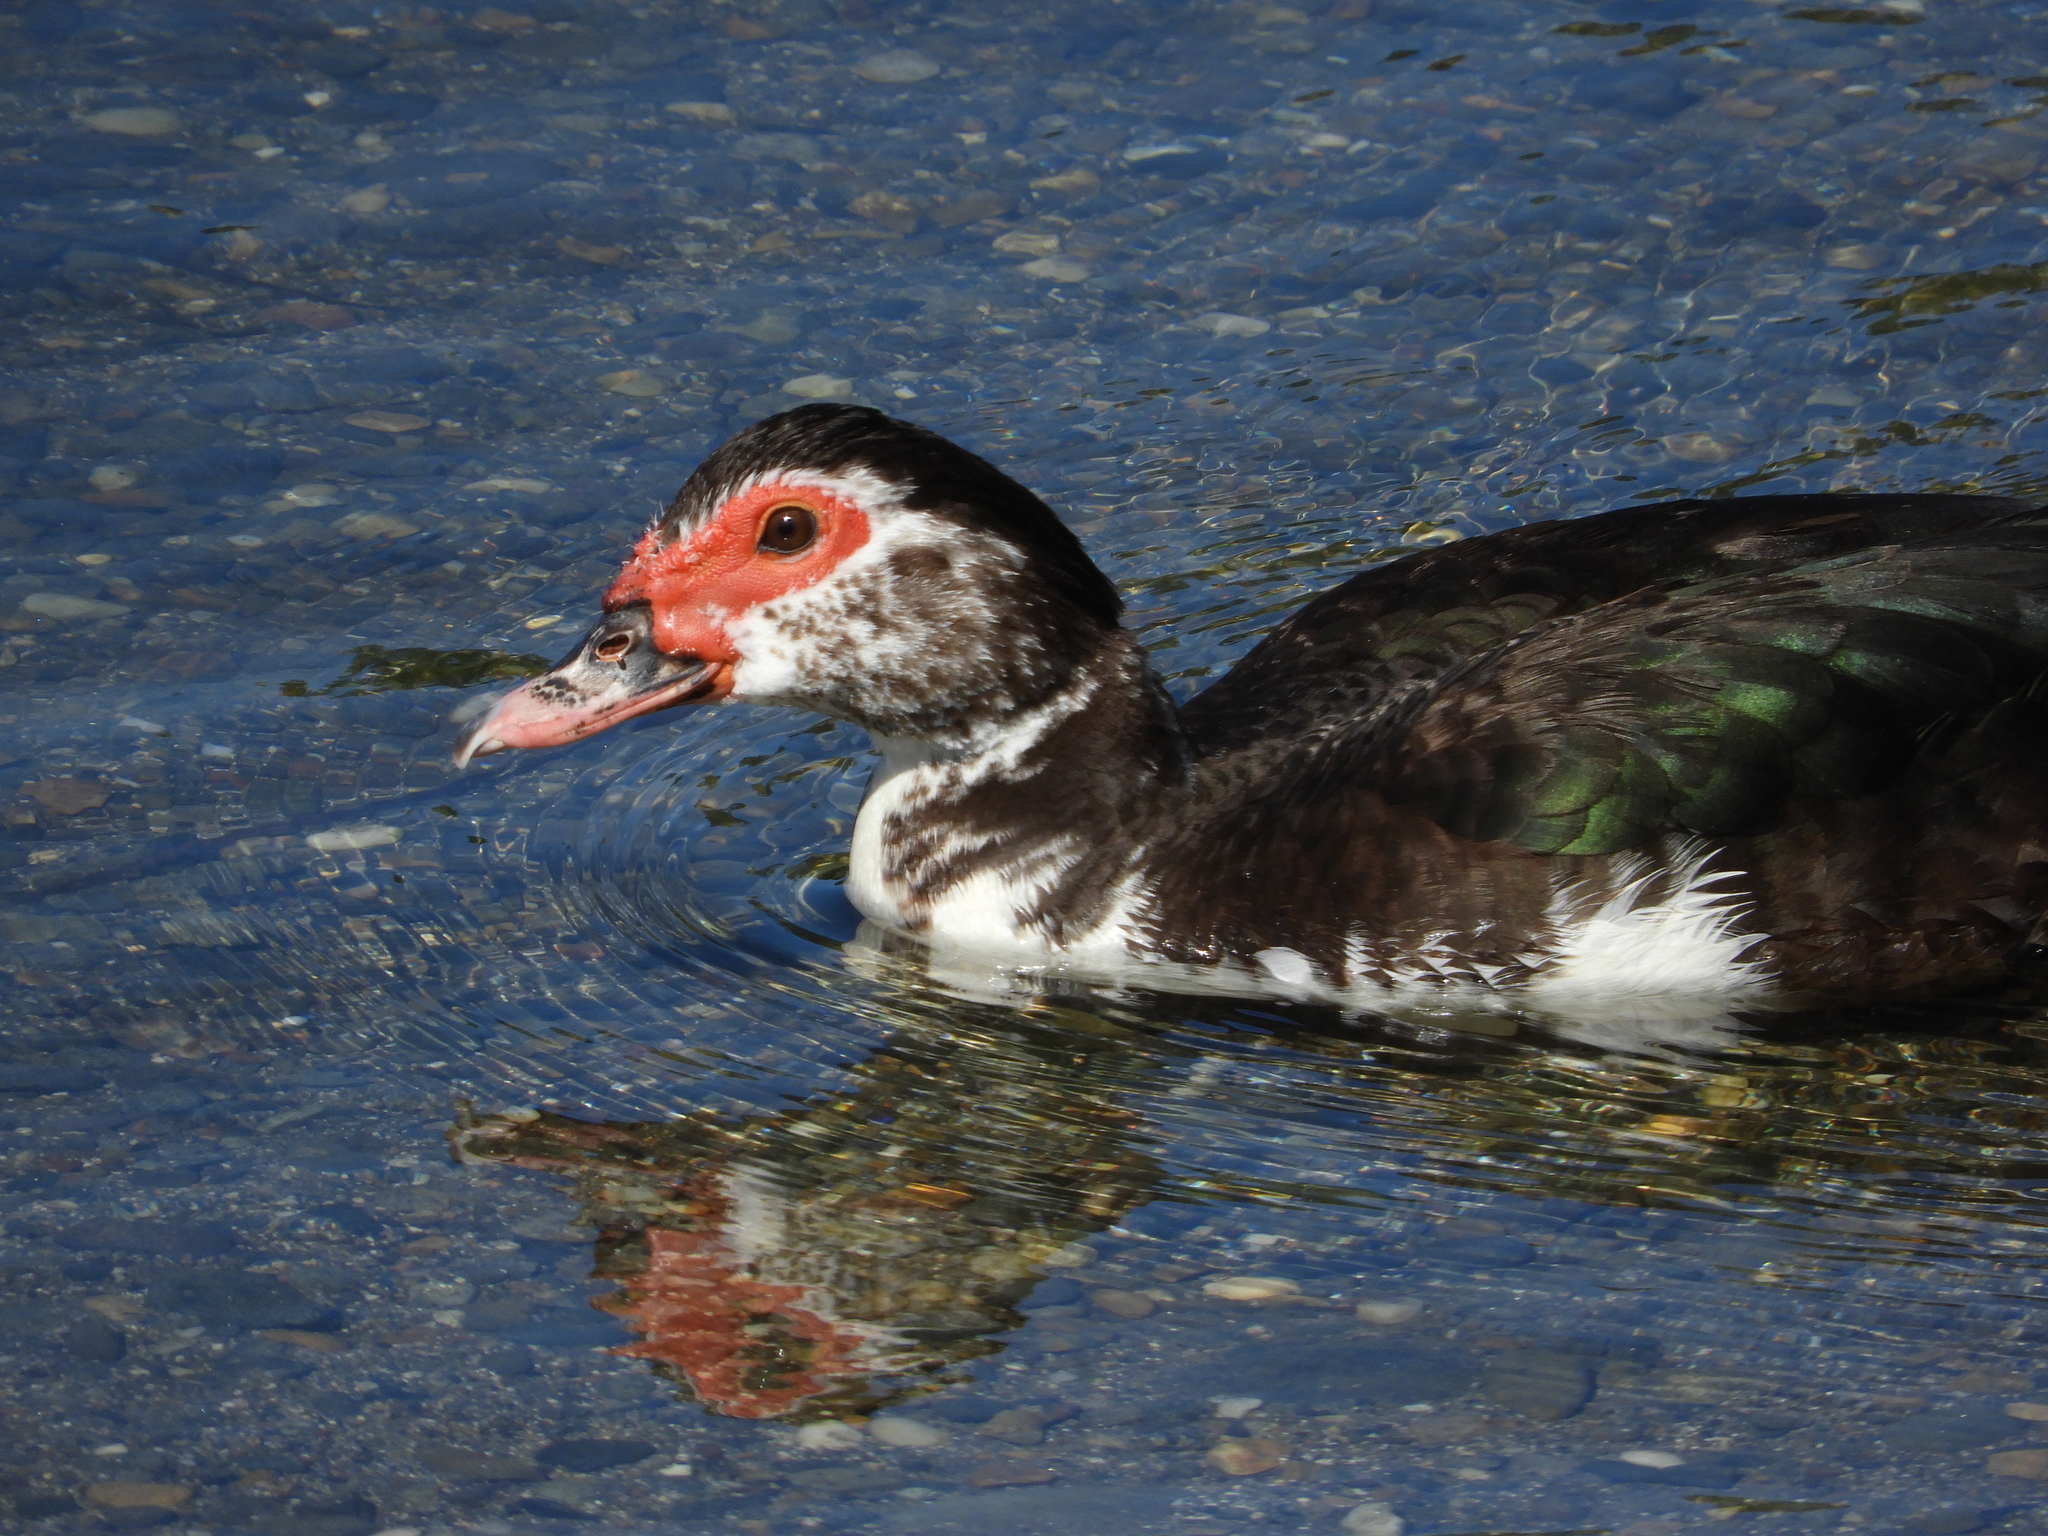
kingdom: Animalia
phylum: Chordata
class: Aves
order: Anseriformes
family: Anatidae
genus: Cairina
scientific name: Cairina moschata
